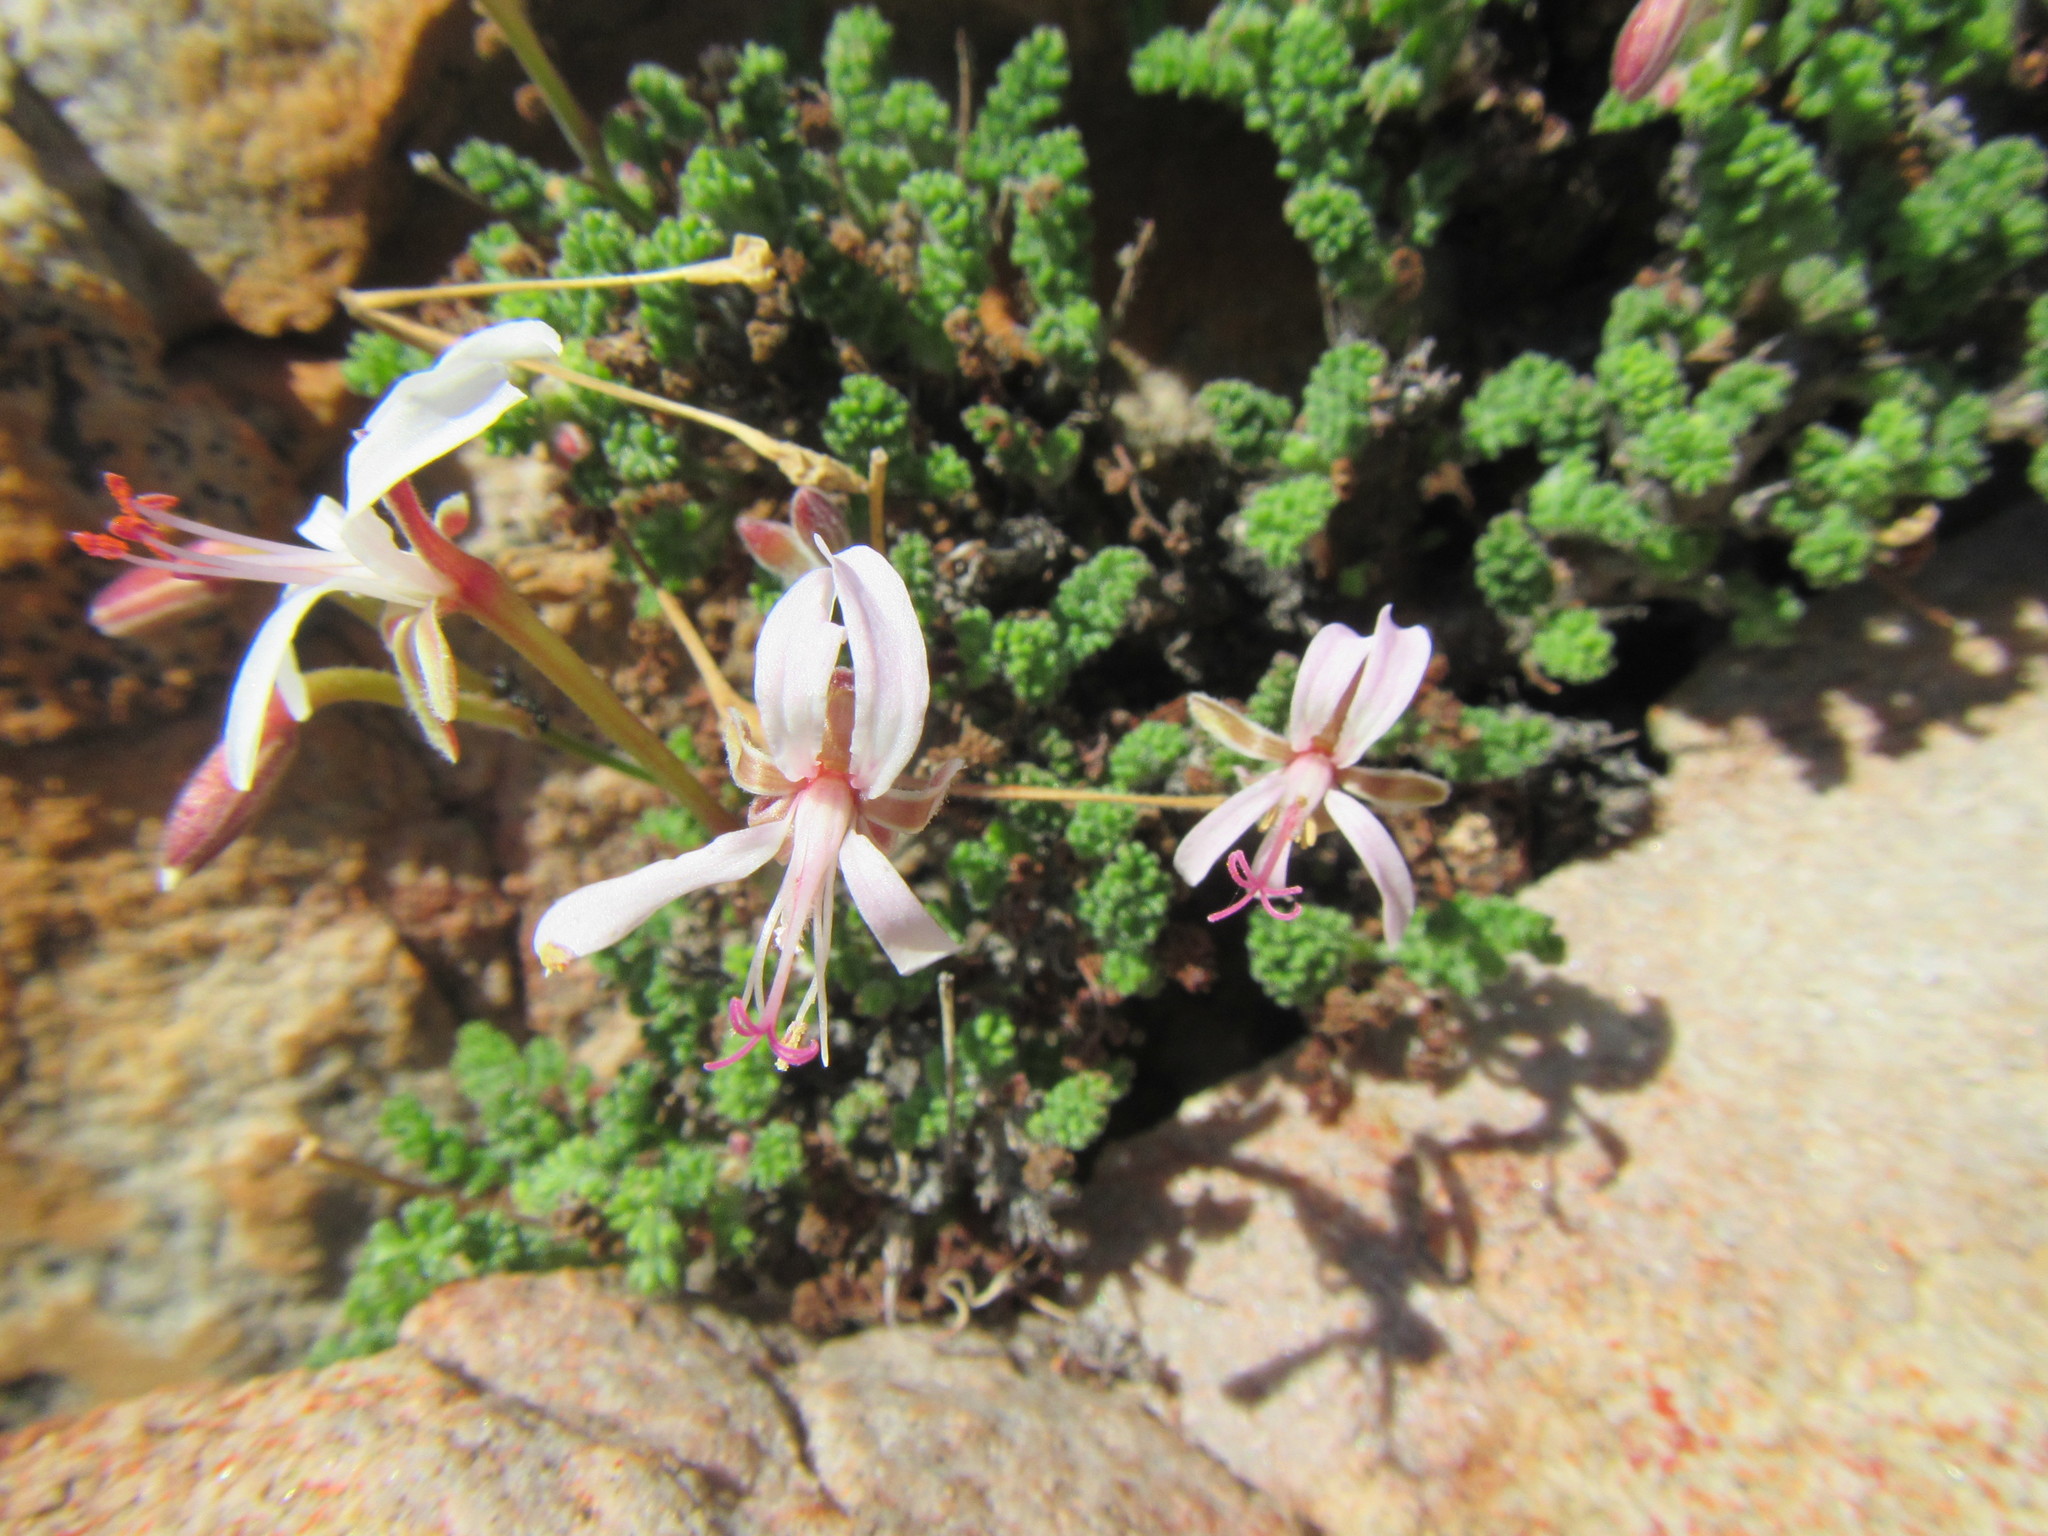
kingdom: Plantae
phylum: Tracheophyta
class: Magnoliopsida
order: Geraniales
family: Geraniaceae
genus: Pelargonium
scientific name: Pelargonium alternans
